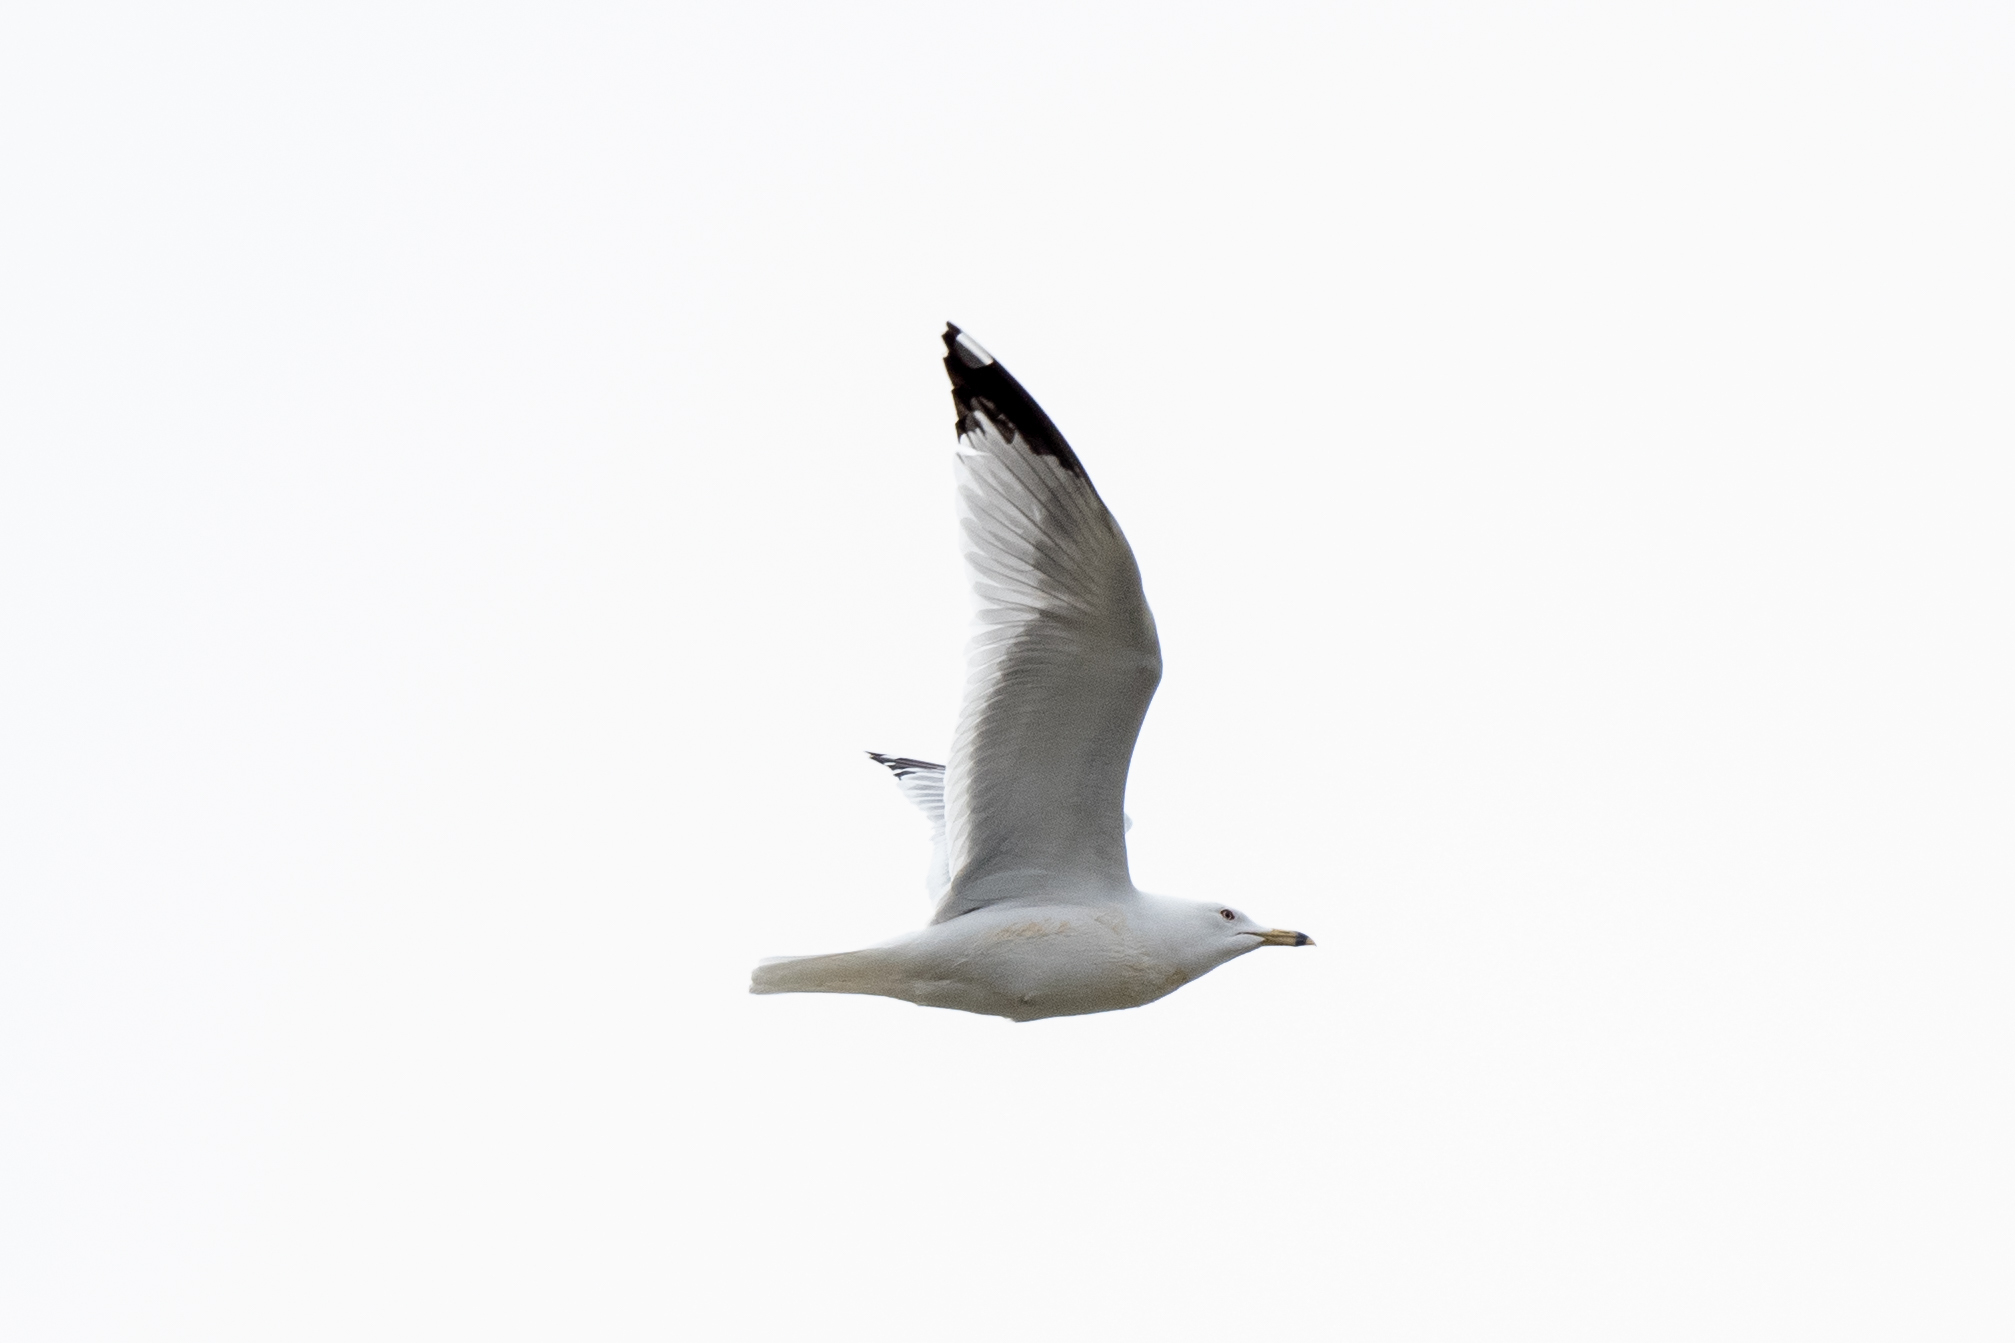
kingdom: Animalia
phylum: Chordata
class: Aves
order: Charadriiformes
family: Laridae
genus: Larus
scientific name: Larus delawarensis
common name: Ring-billed gull
